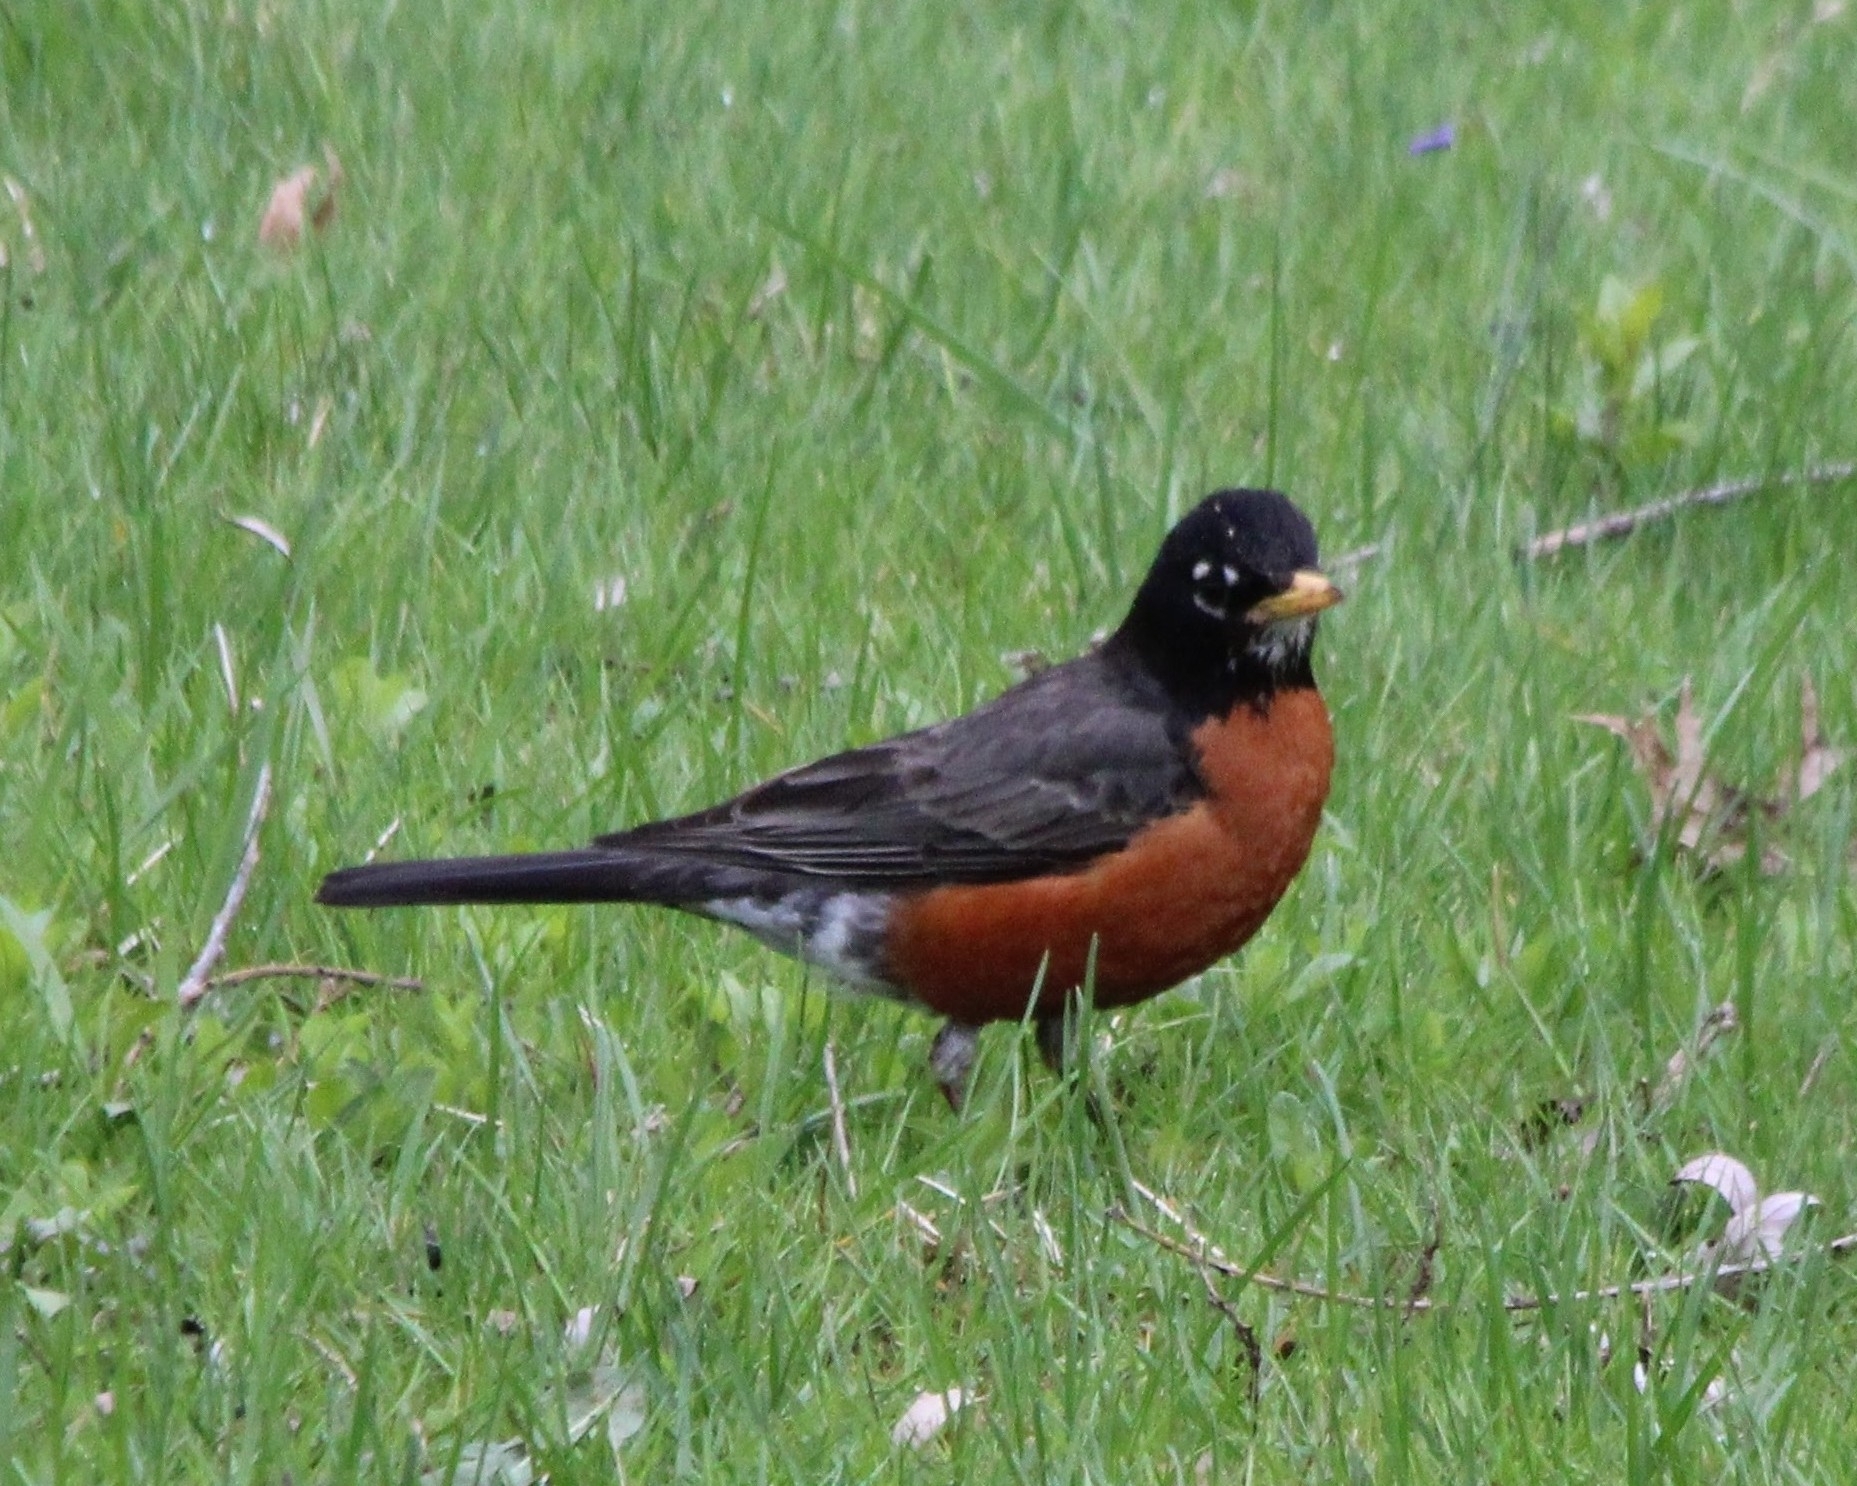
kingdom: Animalia
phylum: Chordata
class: Aves
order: Passeriformes
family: Turdidae
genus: Turdus
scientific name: Turdus migratorius
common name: American robin
